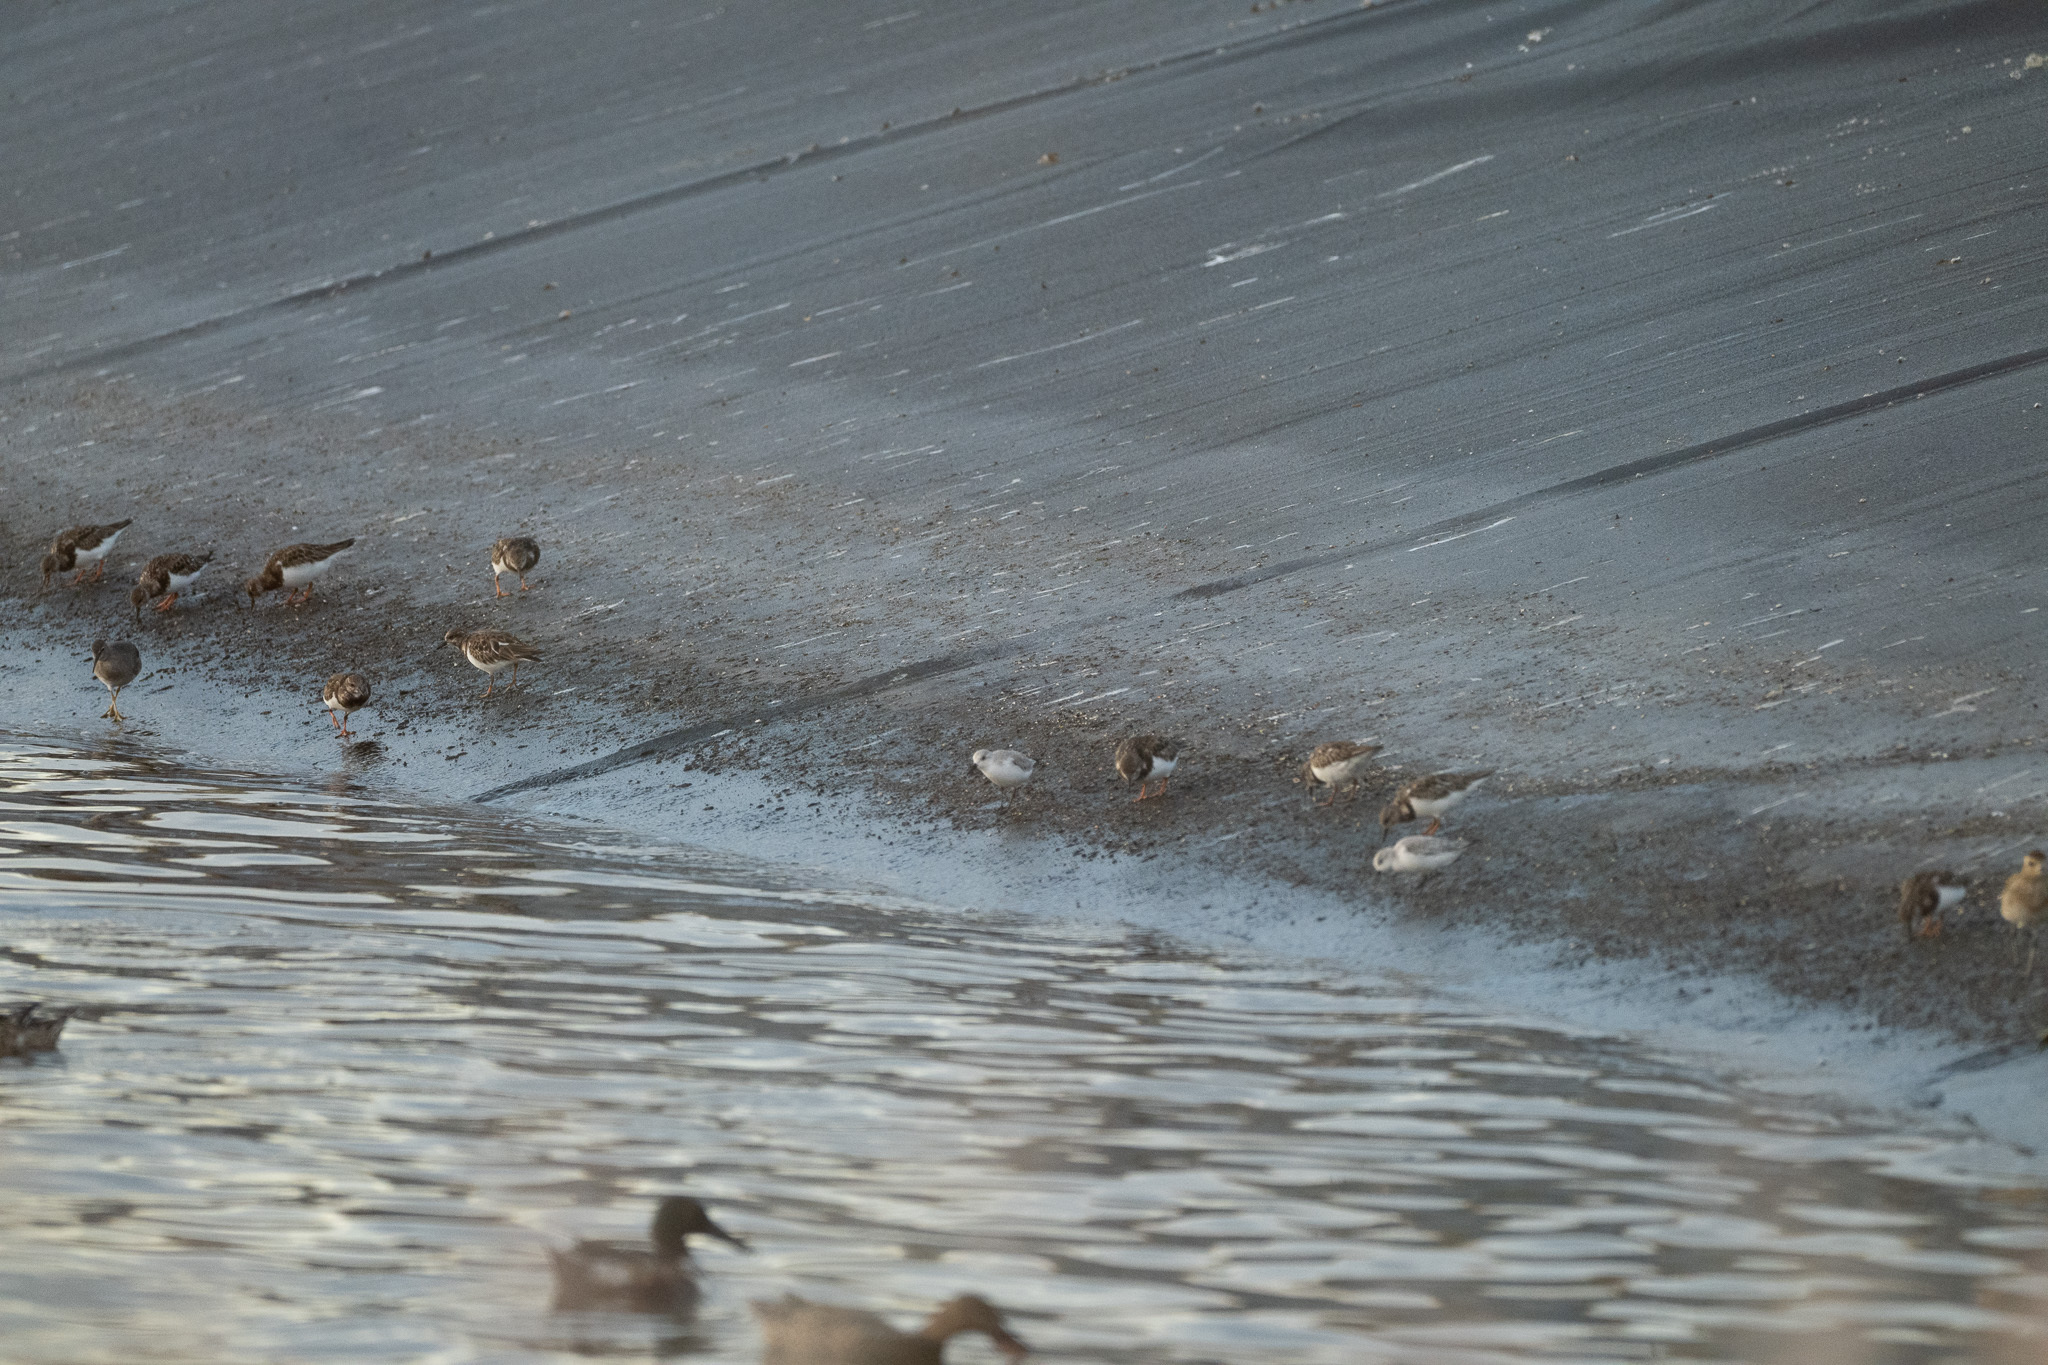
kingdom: Animalia
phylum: Chordata
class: Aves
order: Charadriiformes
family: Scolopacidae
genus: Calidris
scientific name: Calidris alba
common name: Sanderling
